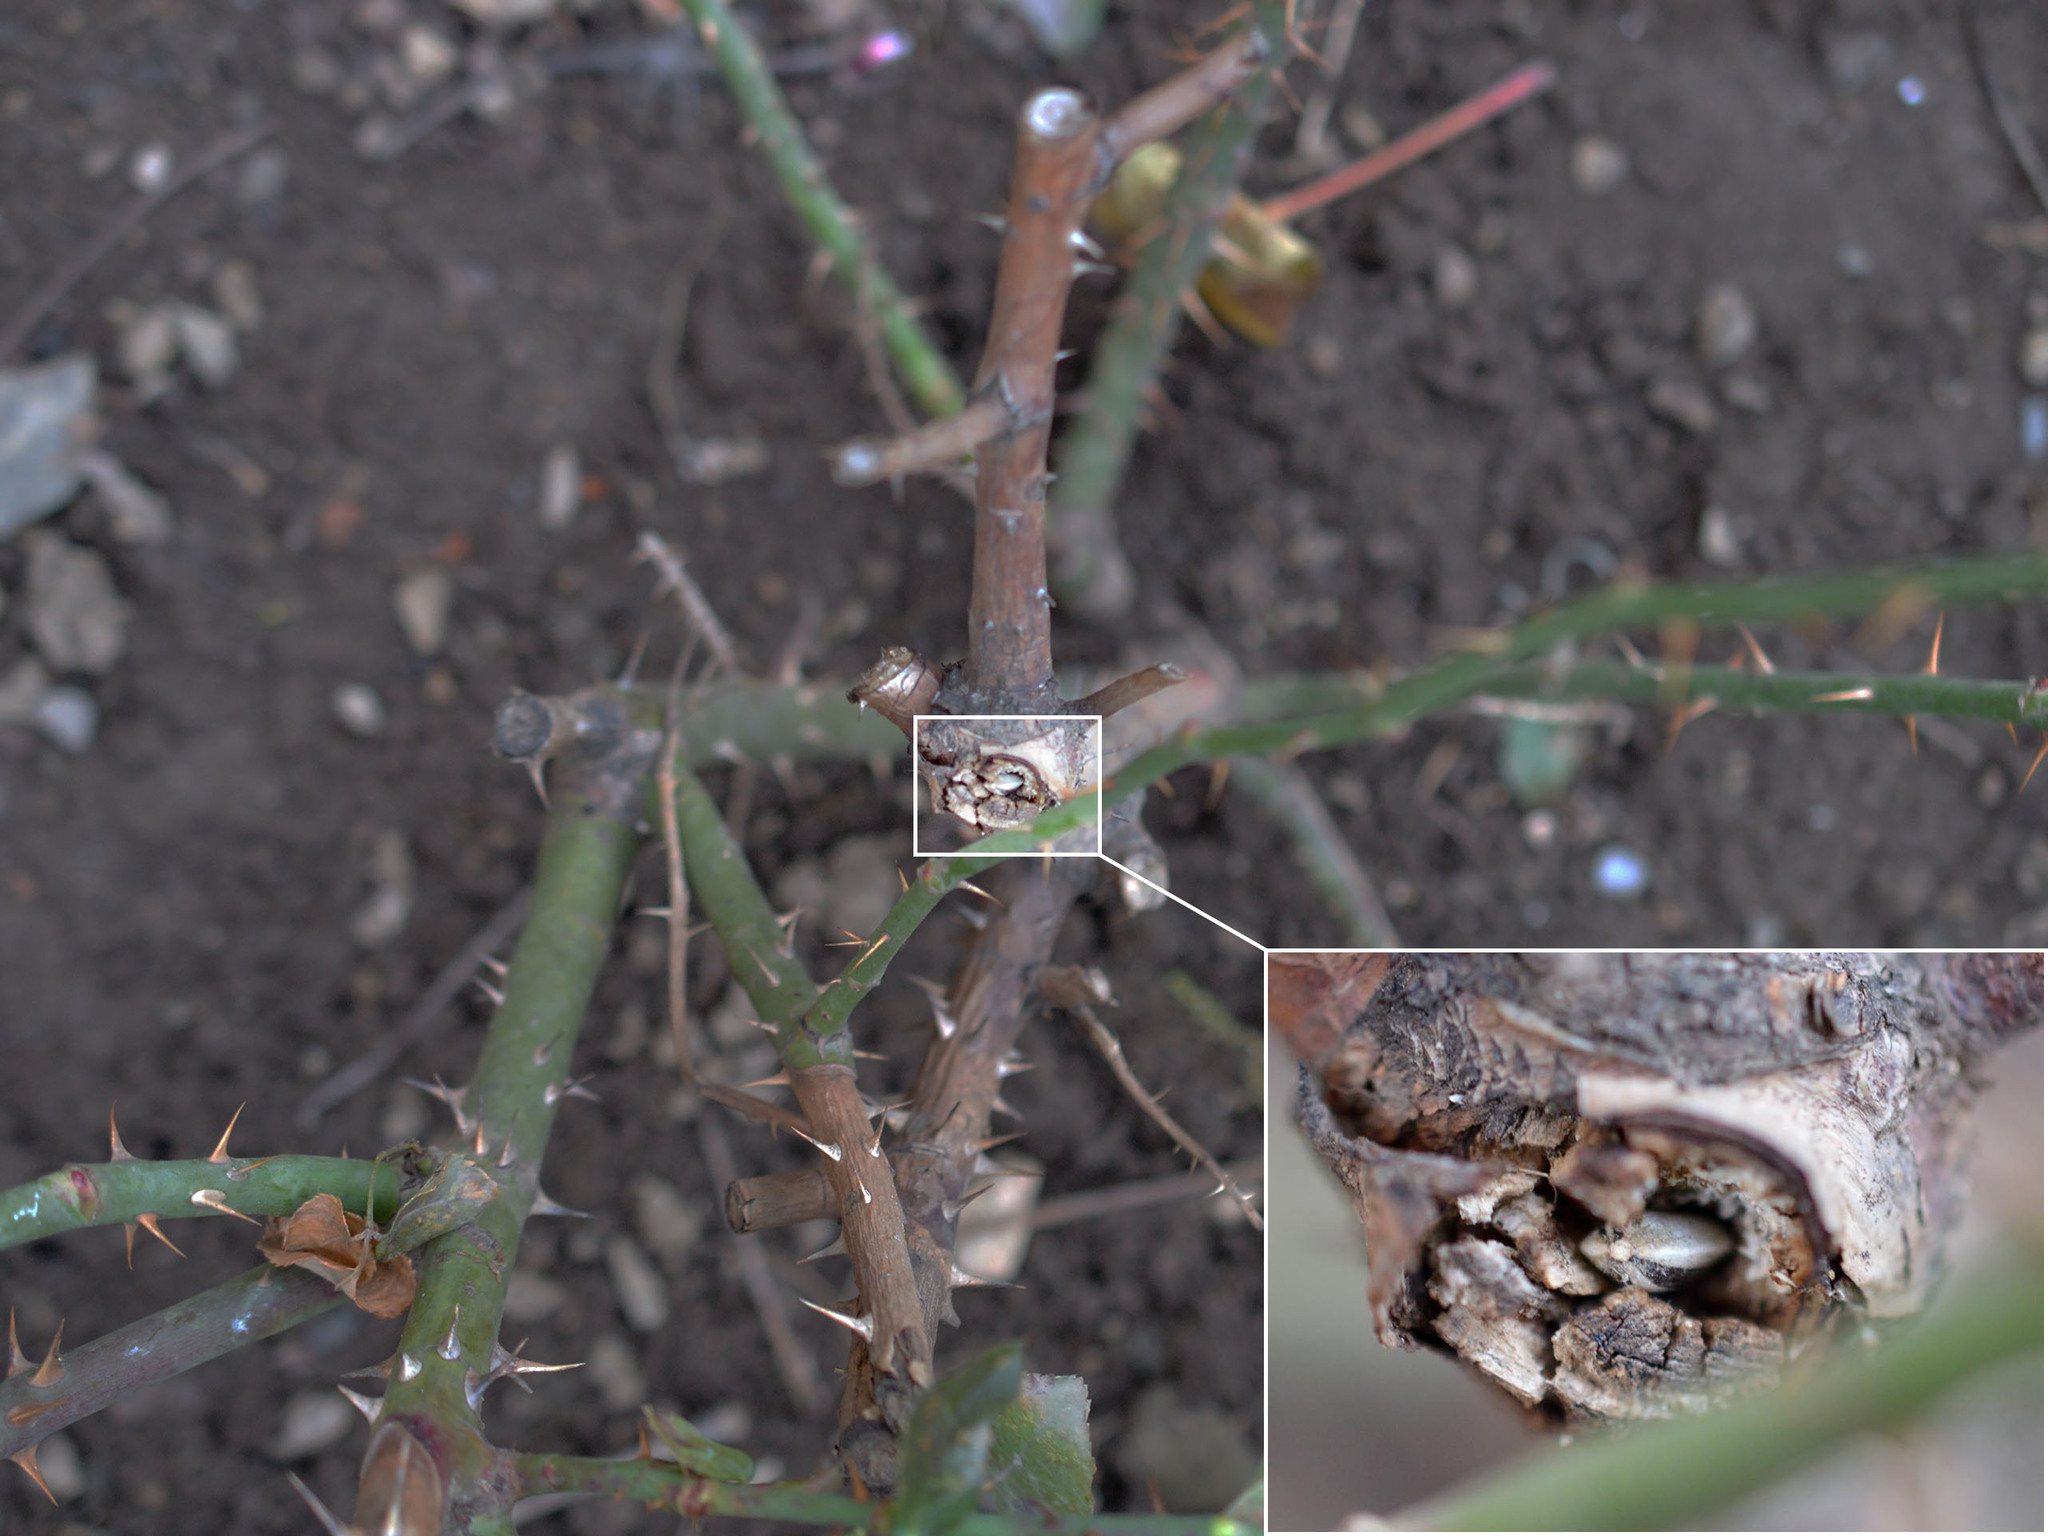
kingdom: Animalia
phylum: Chordata
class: Aves
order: Passeriformes
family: Paridae
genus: Poecile
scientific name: Poecile palustris
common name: Marsh tit
